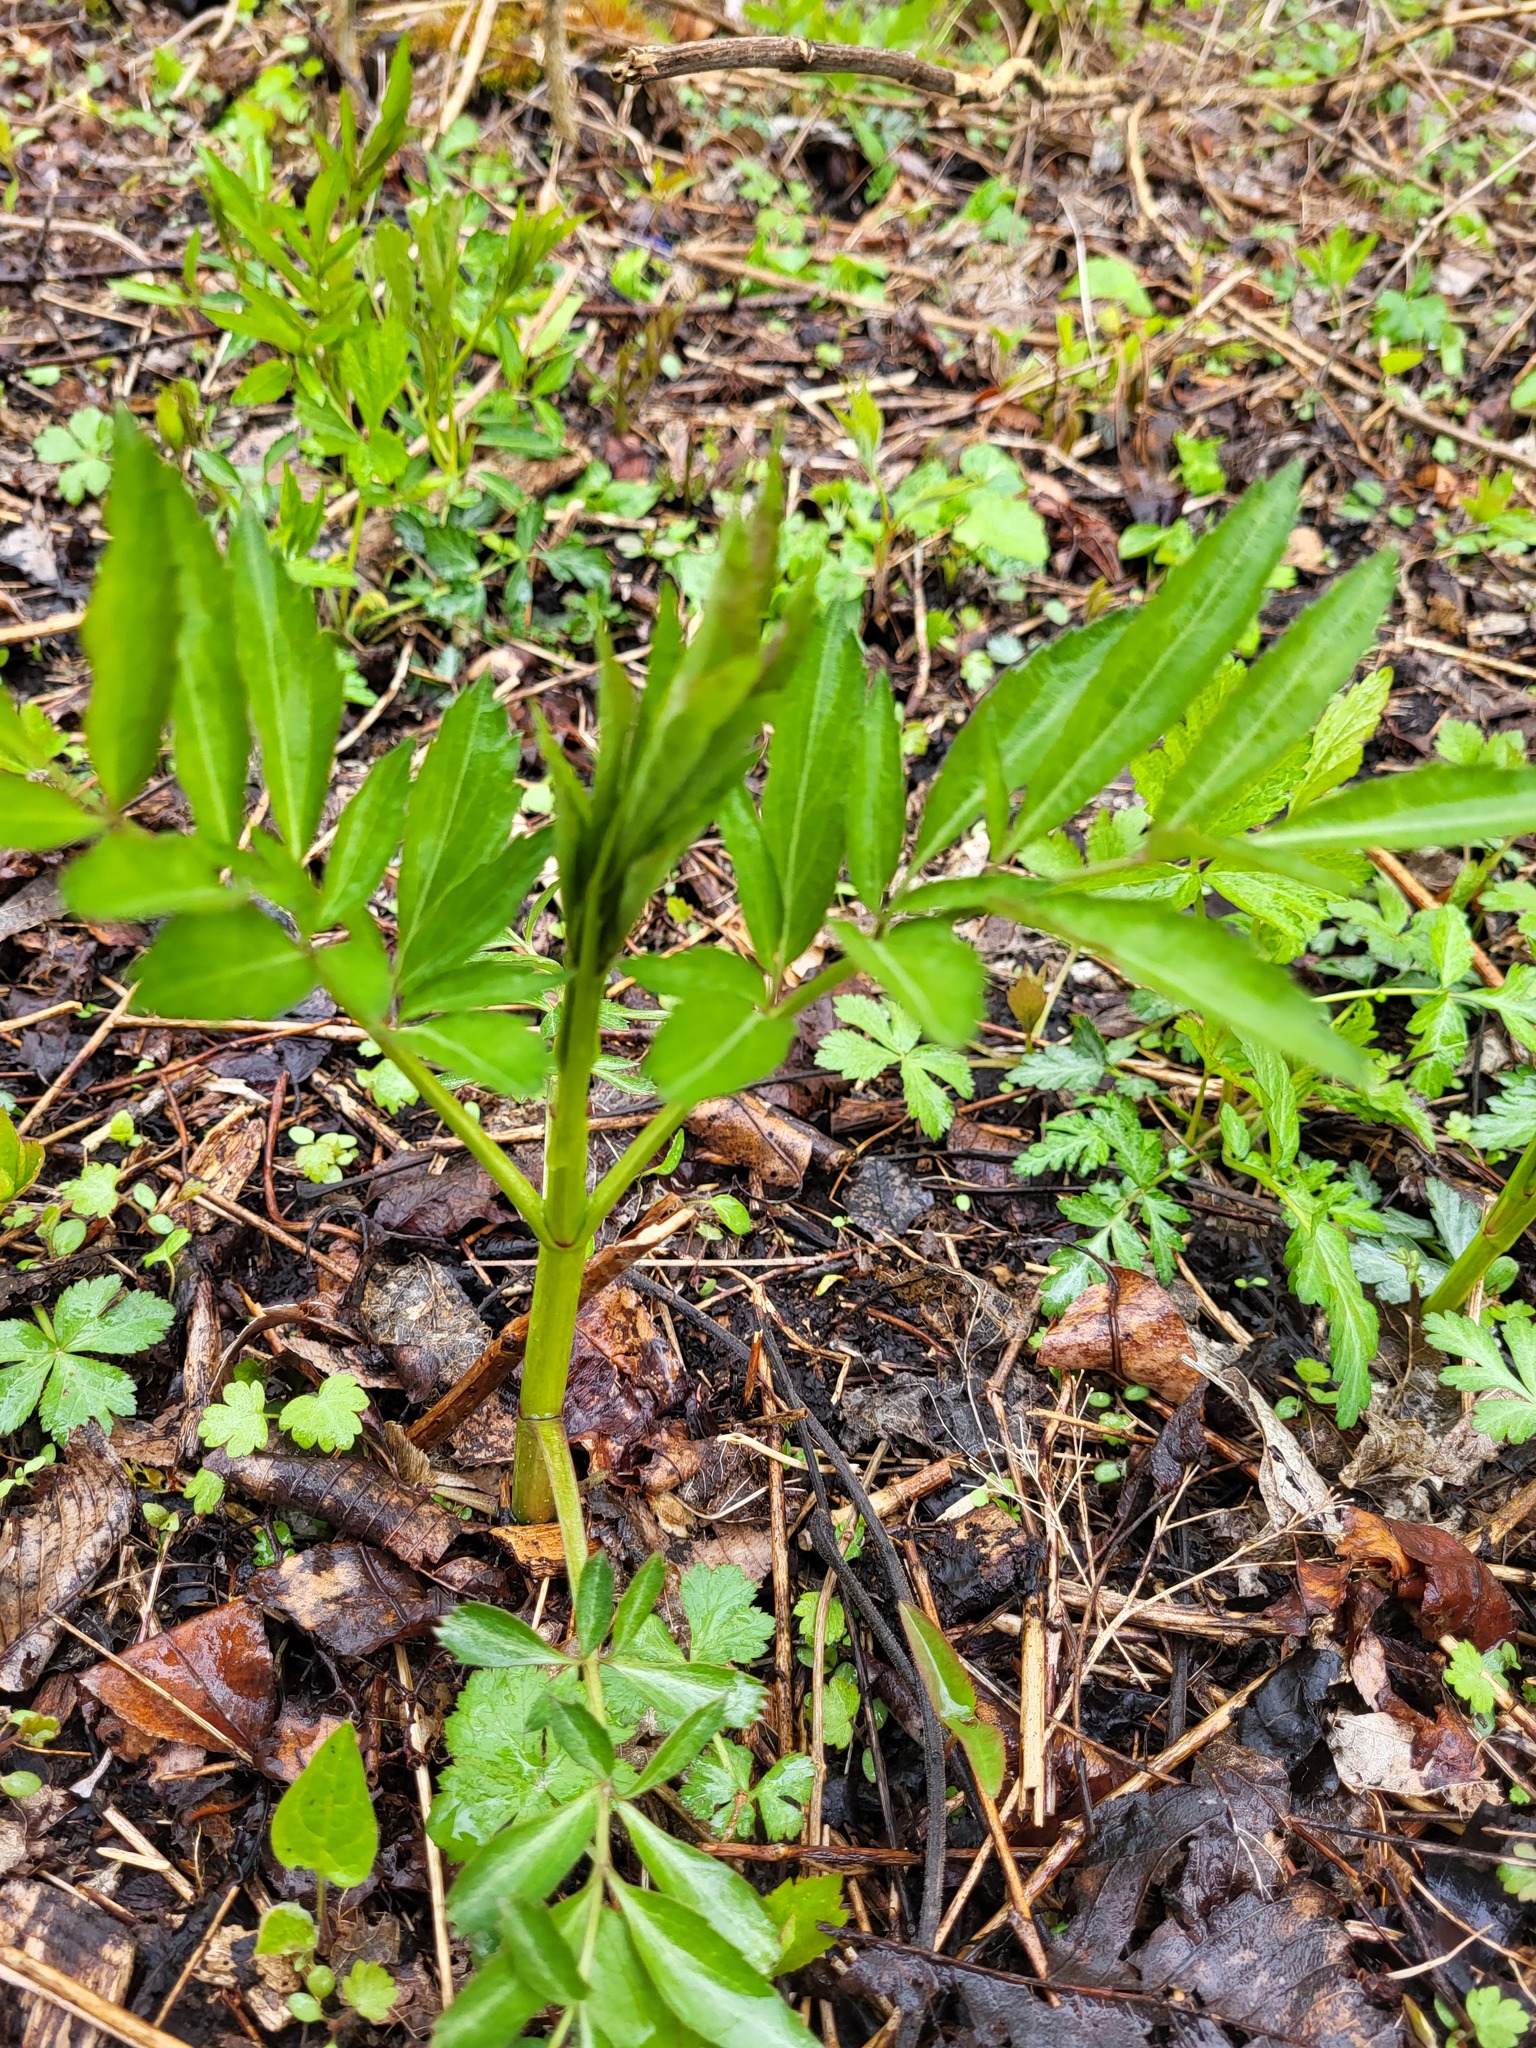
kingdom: Plantae
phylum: Tracheophyta
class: Magnoliopsida
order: Dipsacales
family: Viburnaceae
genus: Sambucus
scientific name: Sambucus canadensis
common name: American elder
